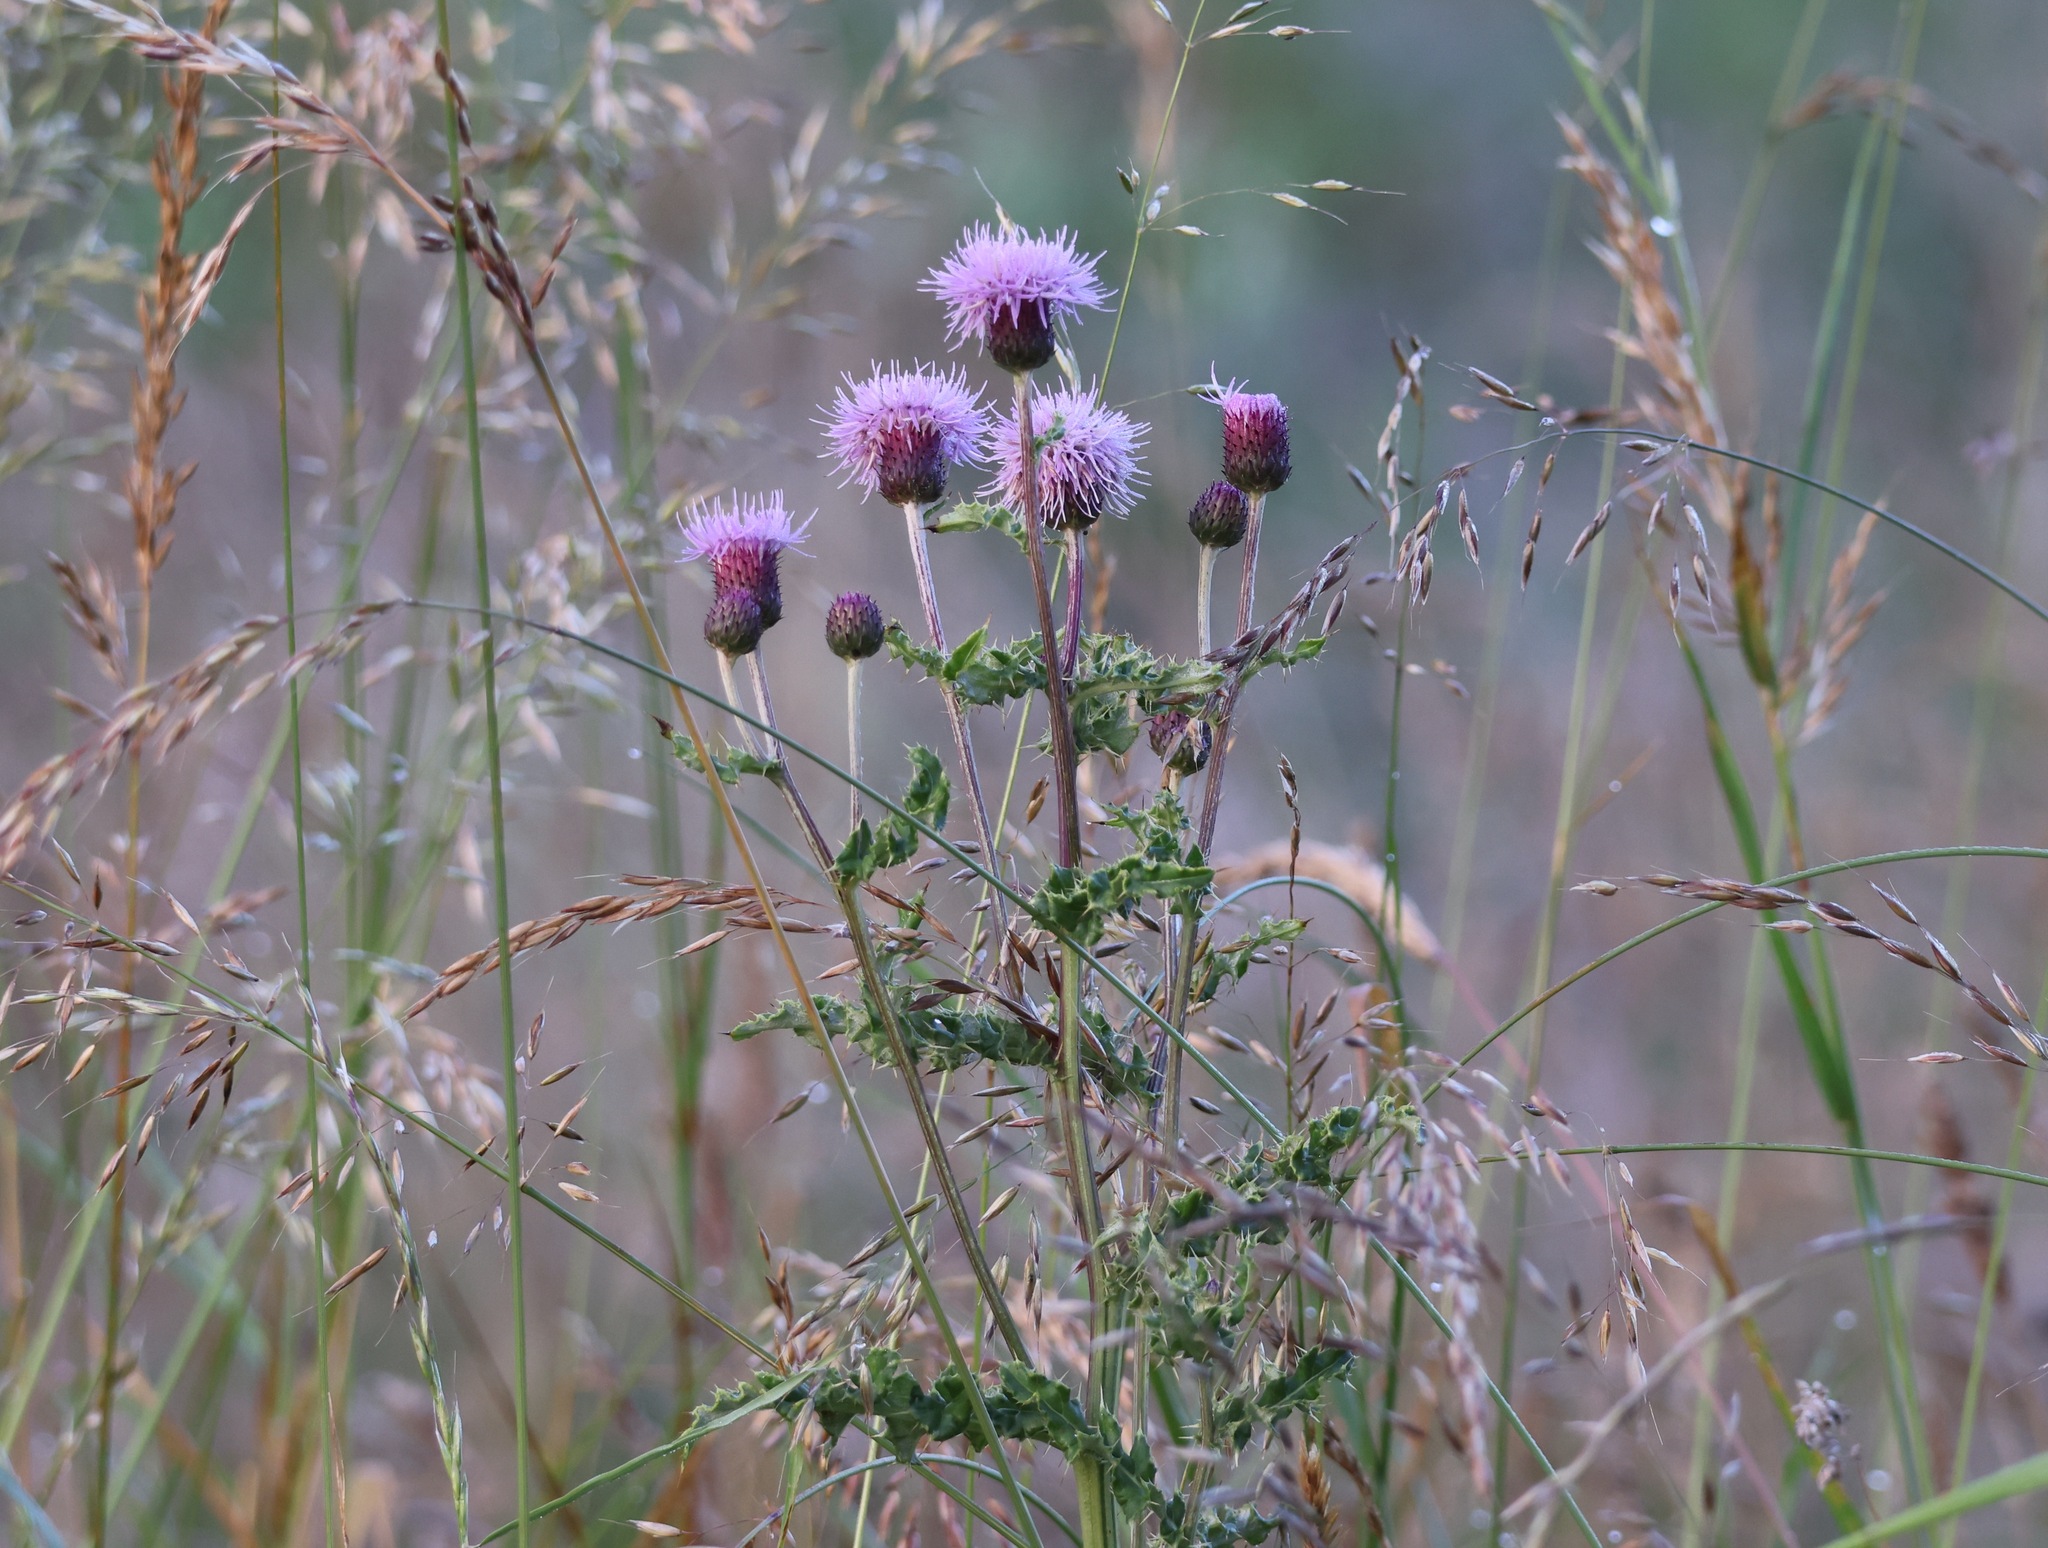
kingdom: Plantae
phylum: Tracheophyta
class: Magnoliopsida
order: Asterales
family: Asteraceae
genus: Cirsium
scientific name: Cirsium arvense
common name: Creeping thistle
